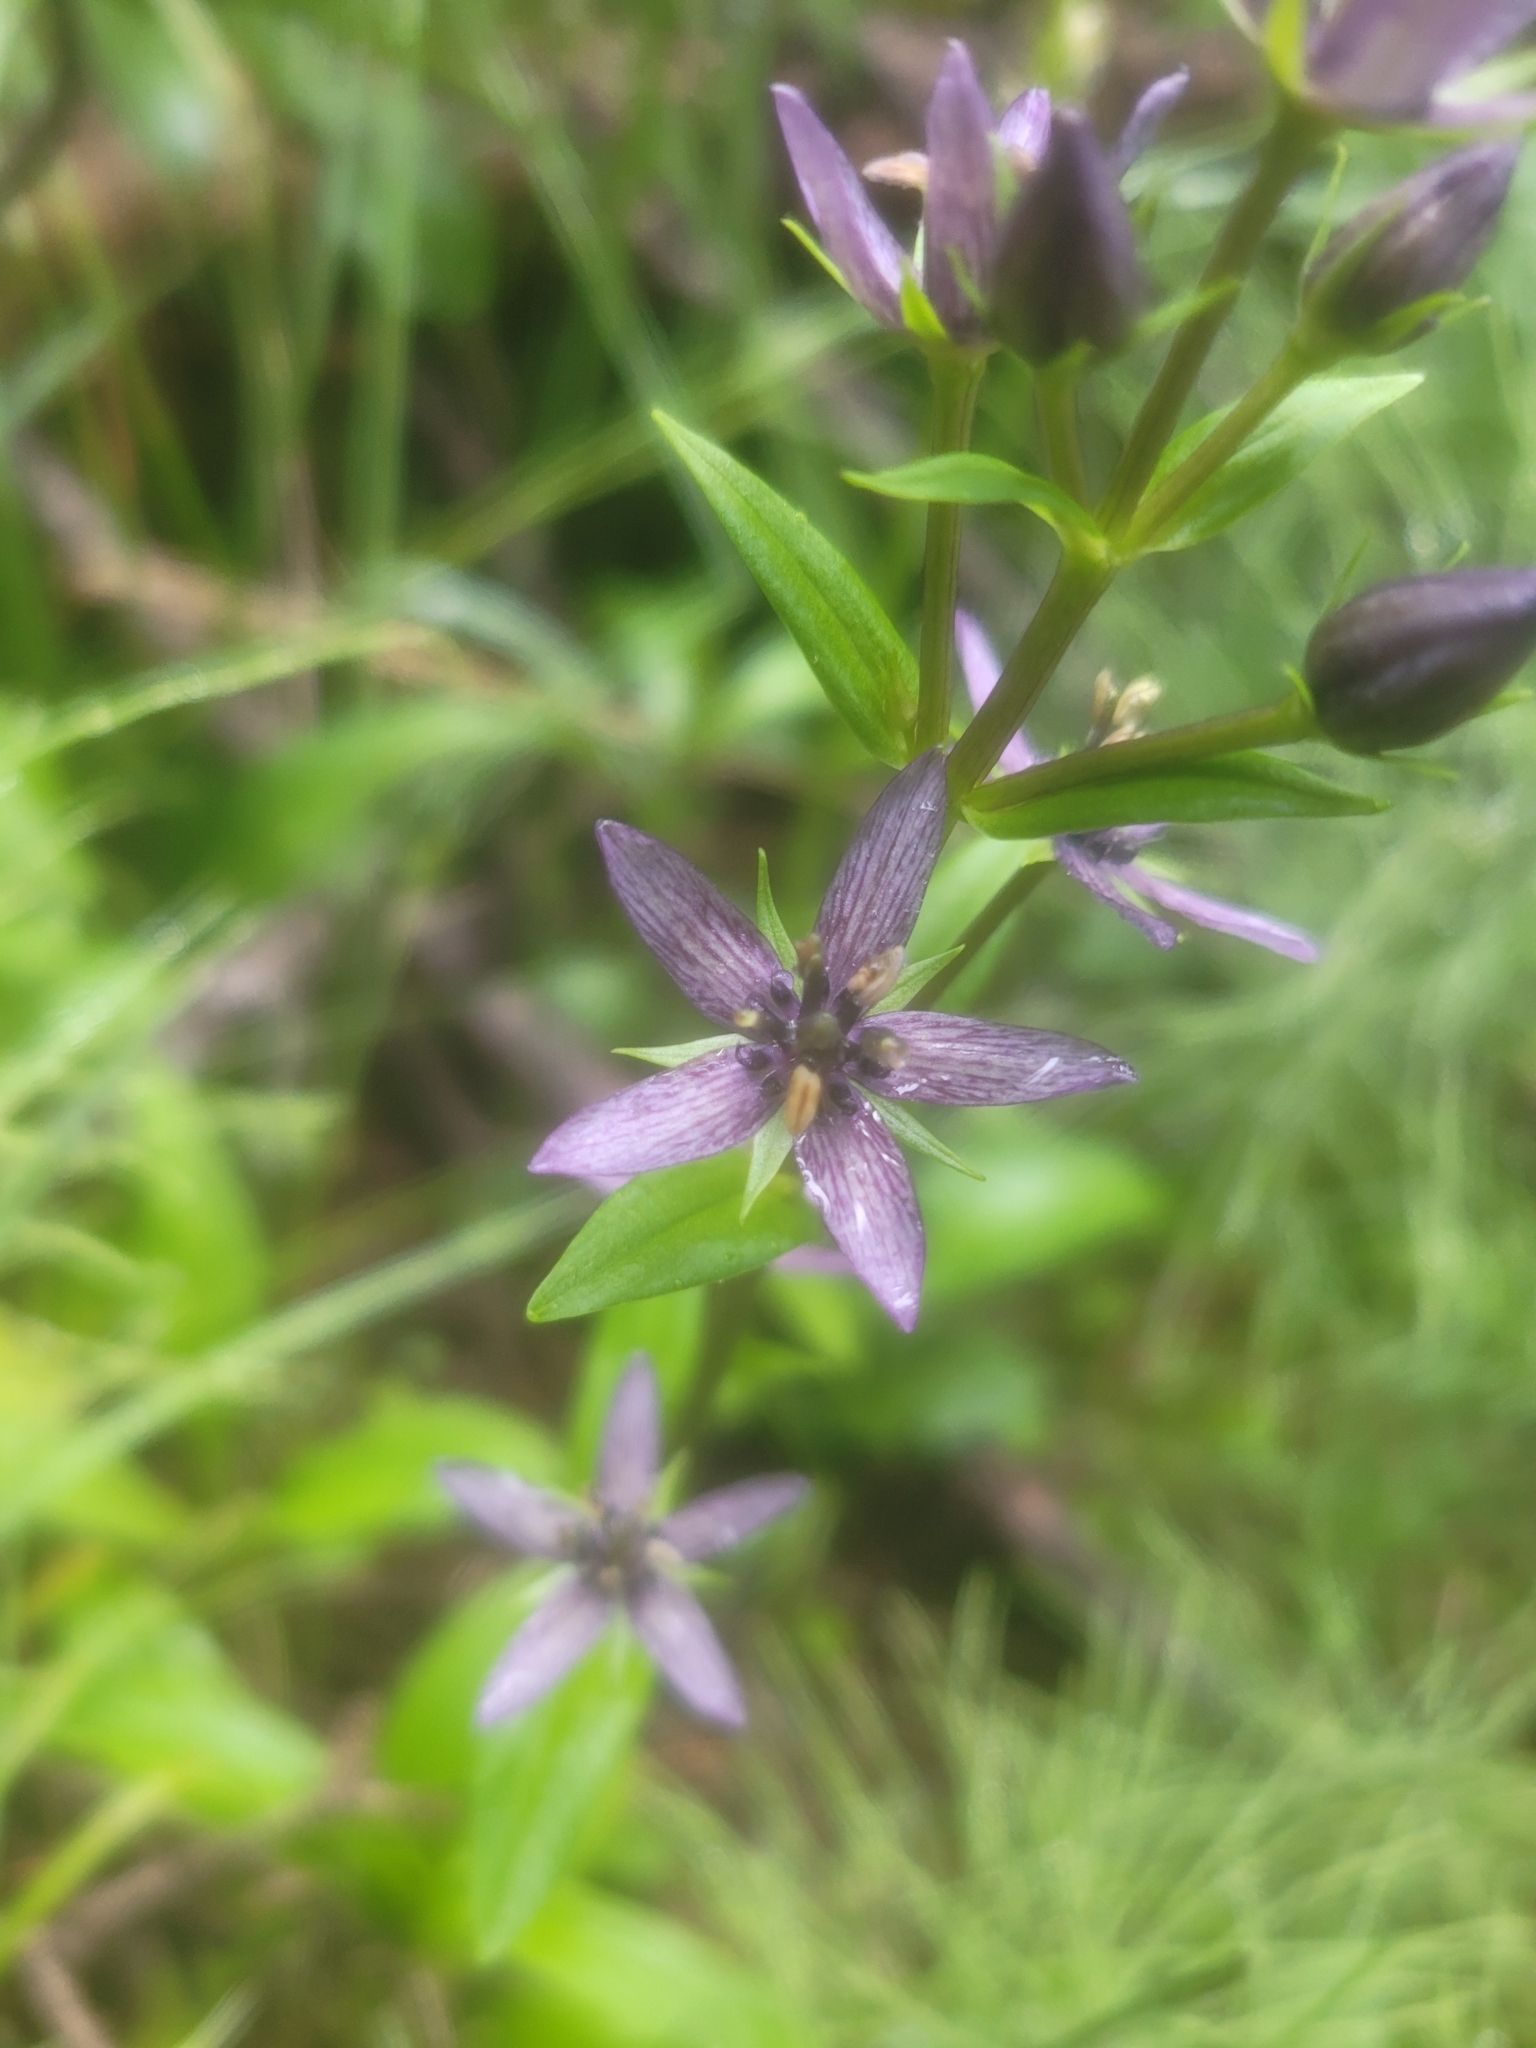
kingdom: Plantae
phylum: Tracheophyta
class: Magnoliopsida
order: Gentianales
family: Gentianaceae
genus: Swertia
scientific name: Swertia perennis
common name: Alpine bog swertia
